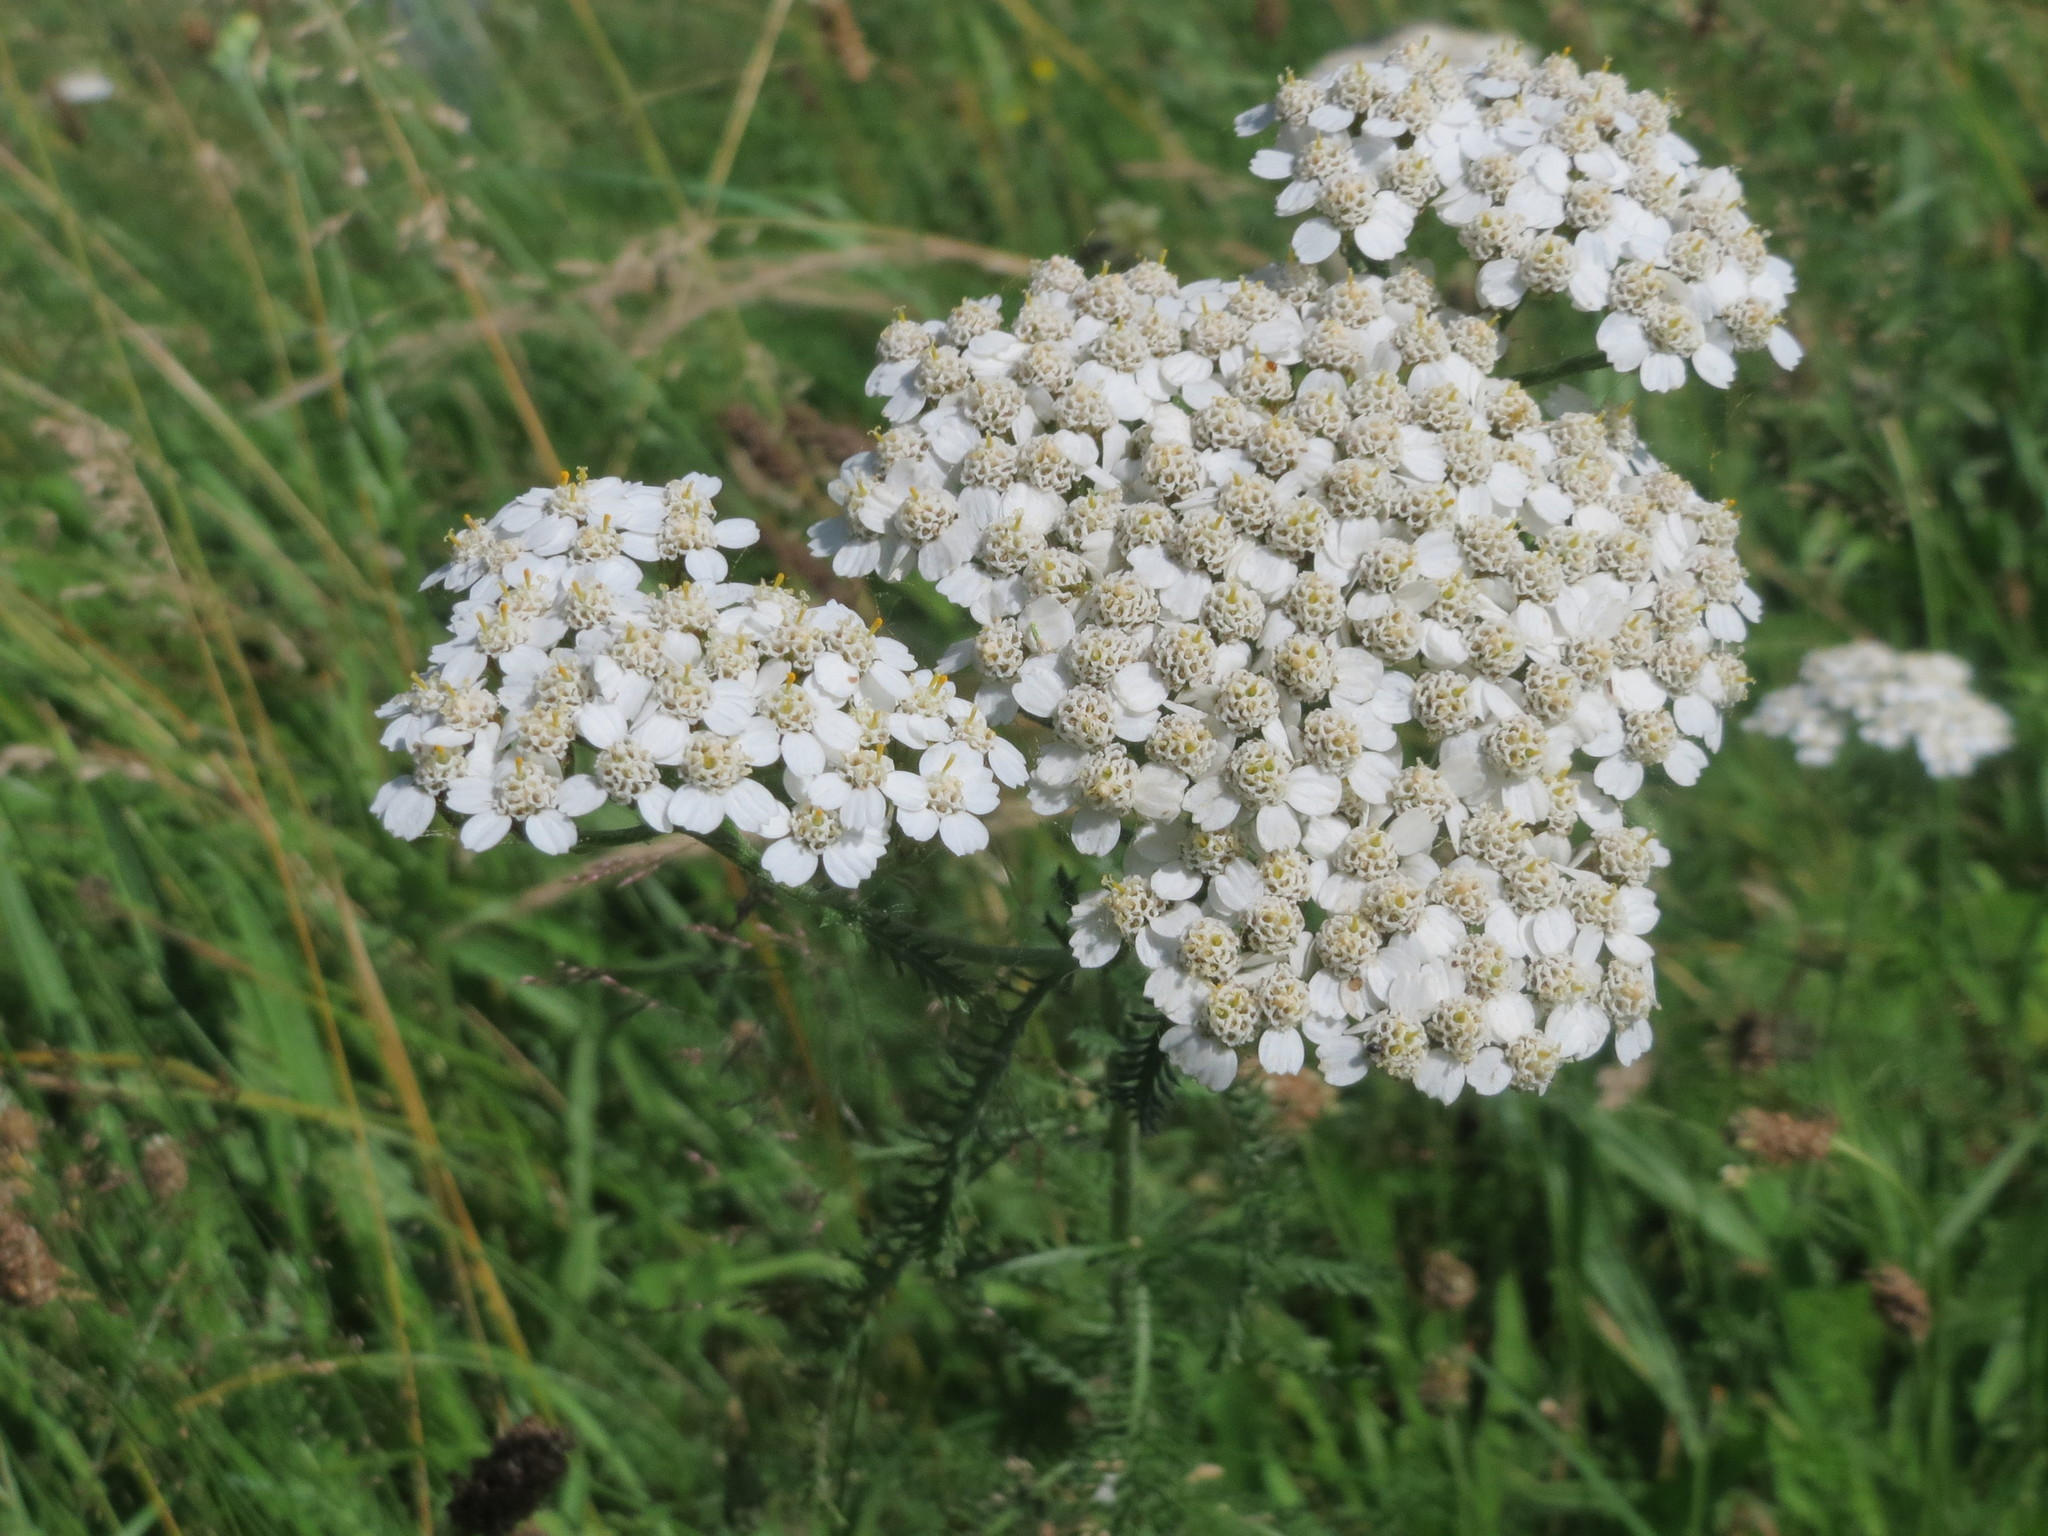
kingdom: Plantae
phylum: Tracheophyta
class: Magnoliopsida
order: Asterales
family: Asteraceae
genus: Achillea
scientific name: Achillea millefolium
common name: Yarrow
